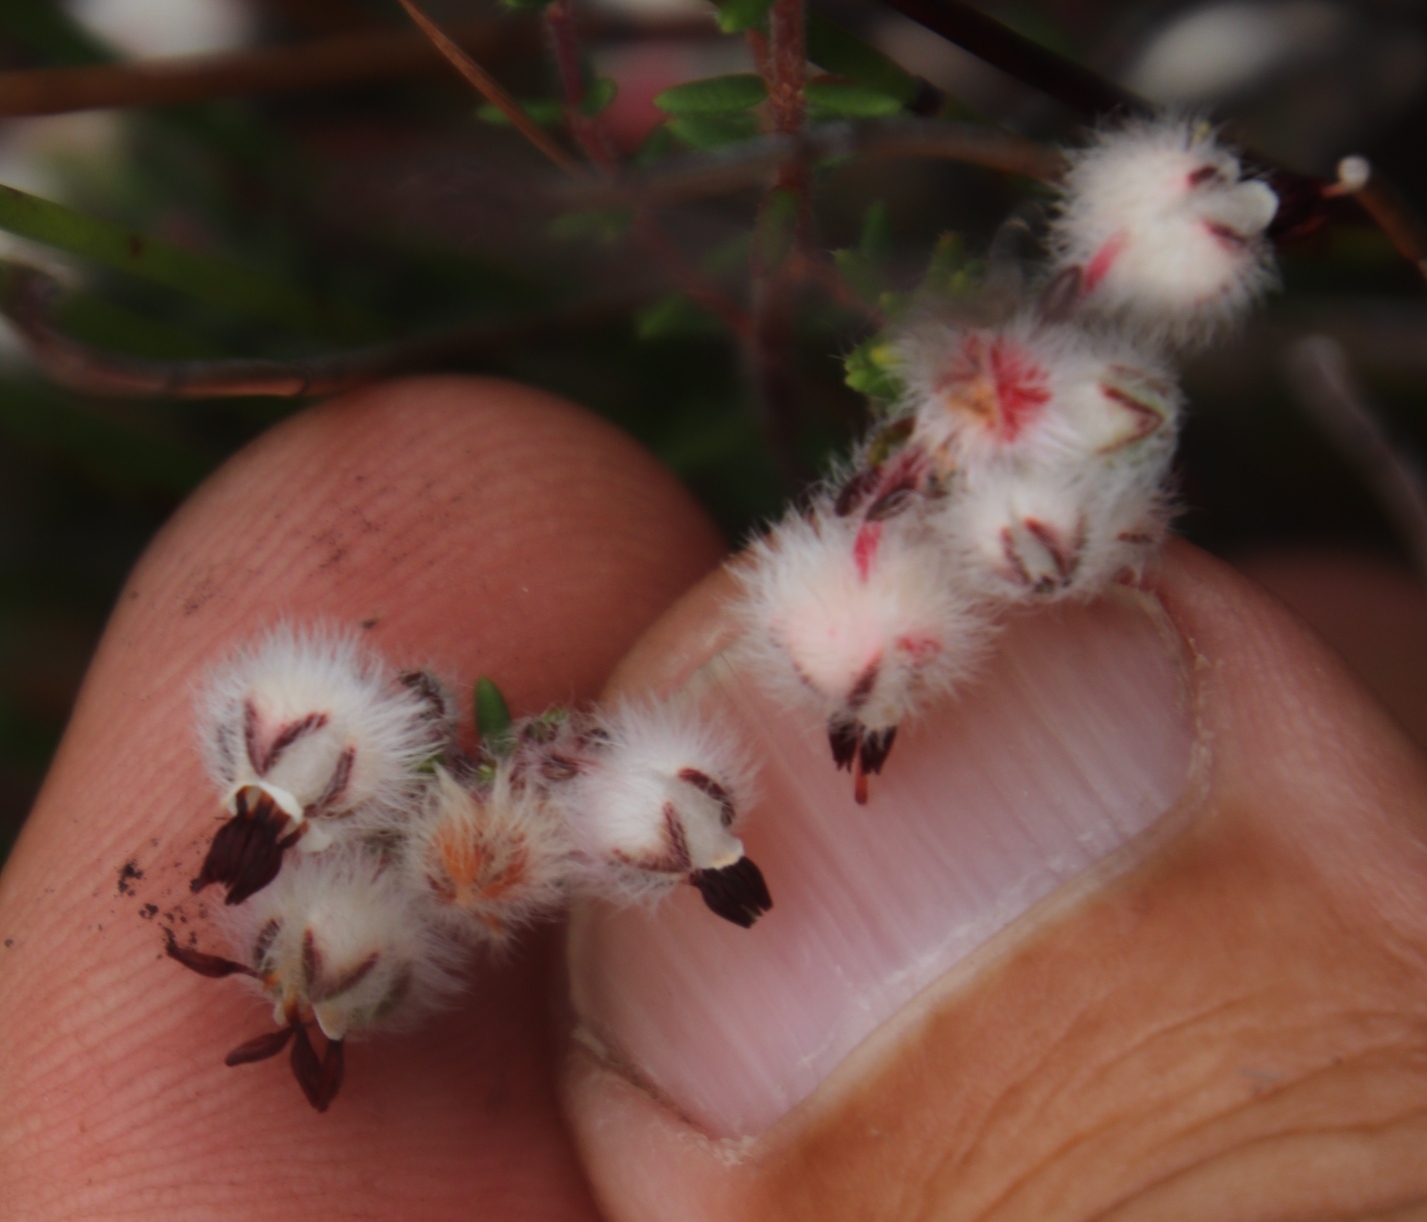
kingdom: Plantae
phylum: Tracheophyta
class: Magnoliopsida
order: Ericales
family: Ericaceae
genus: Erica
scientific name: Erica bruniades
